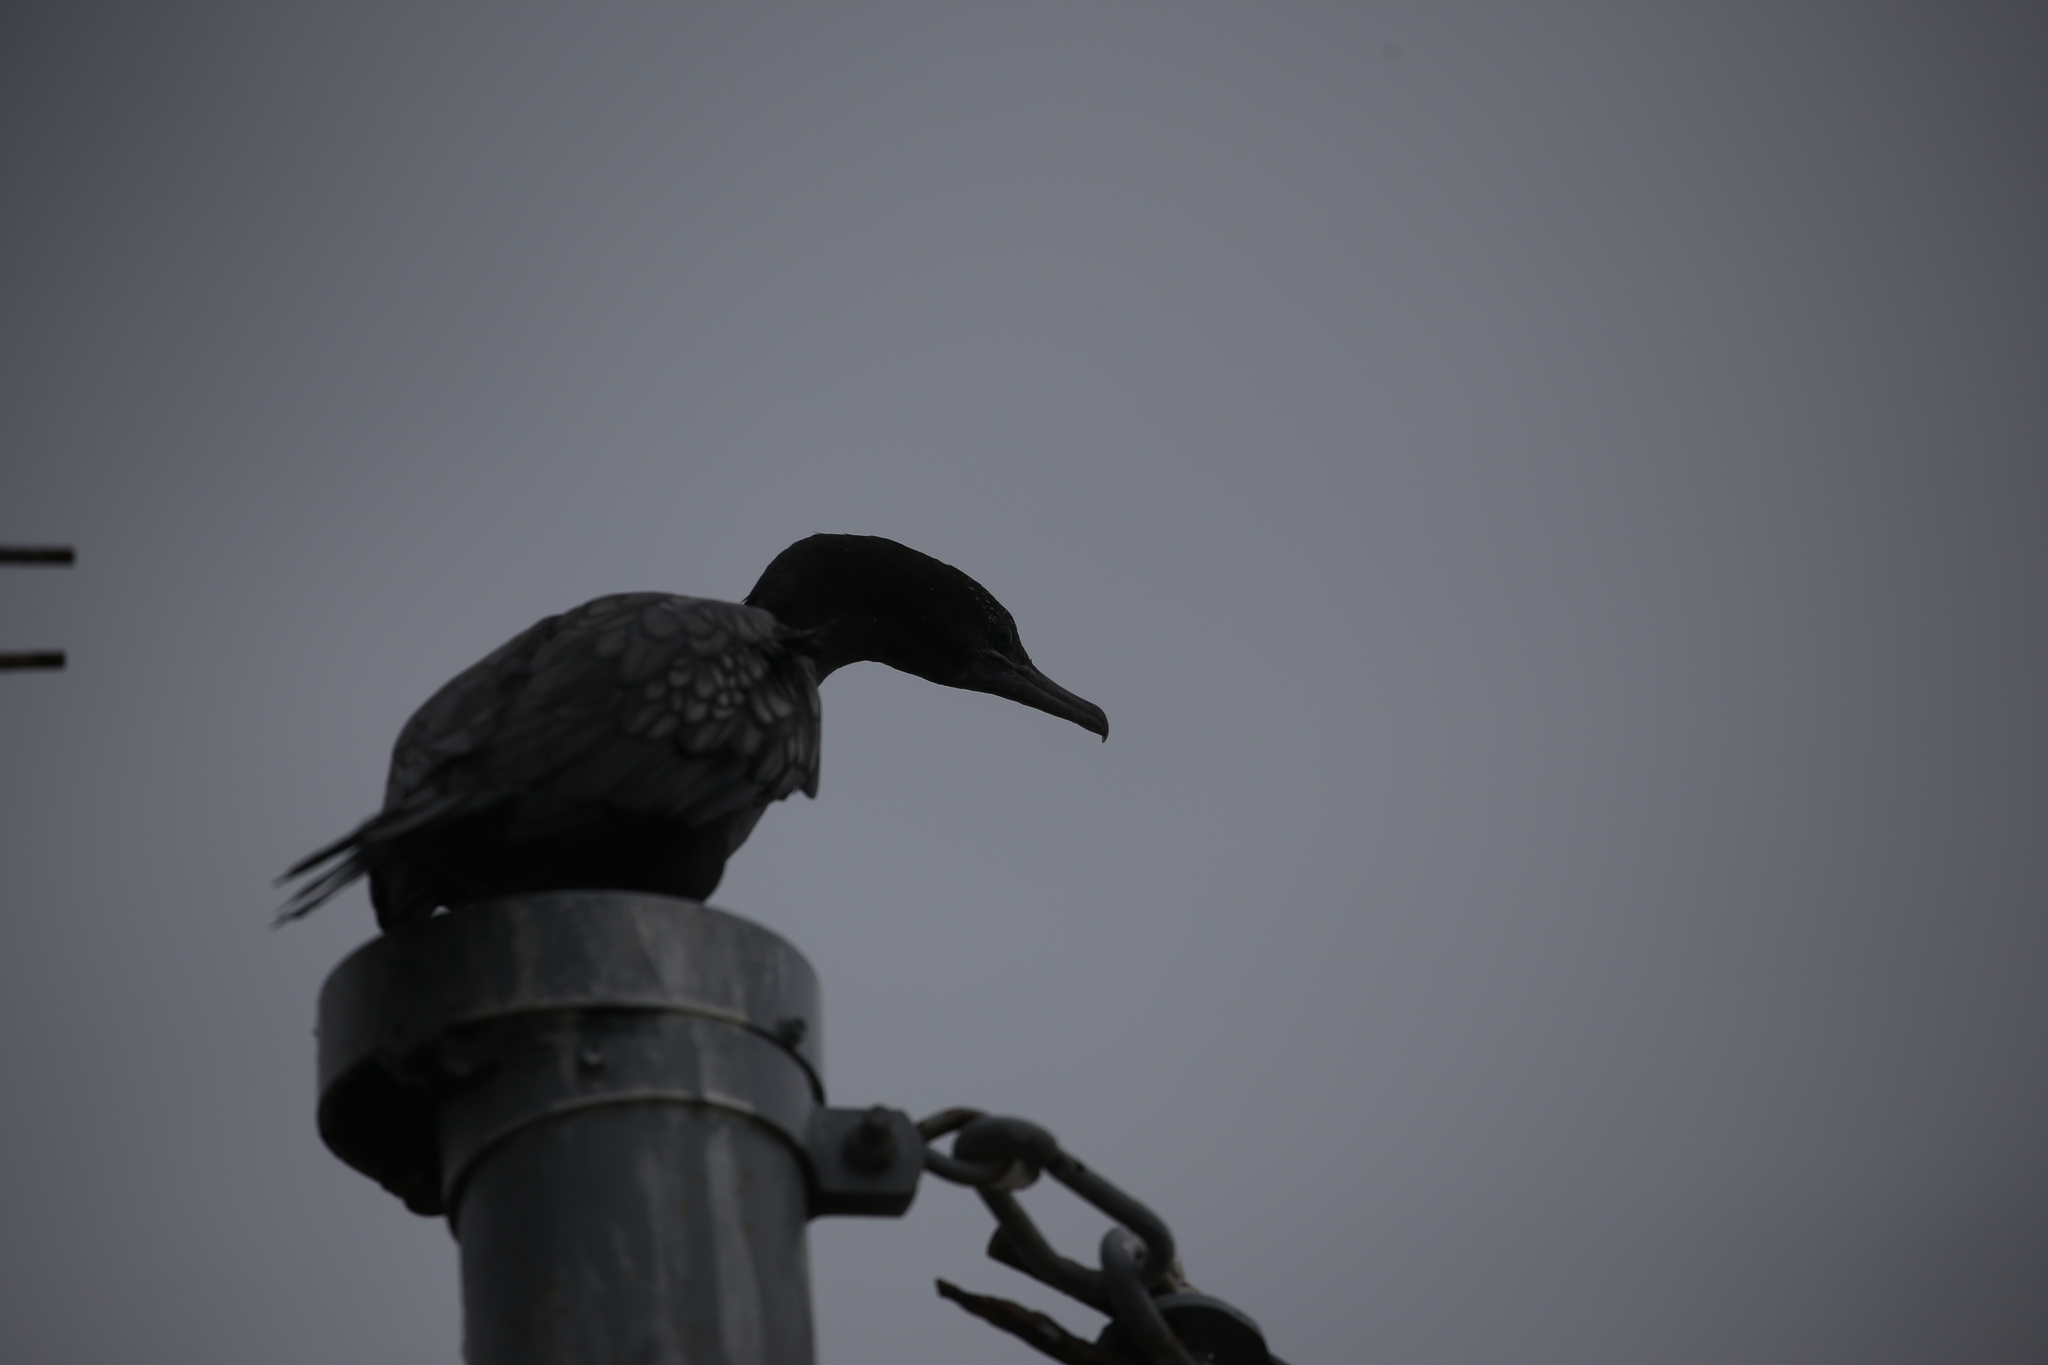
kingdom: Animalia
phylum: Chordata
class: Aves
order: Suliformes
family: Phalacrocoracidae
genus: Phalacrocorax
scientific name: Phalacrocorax sulcirostris
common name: Little black cormorant
